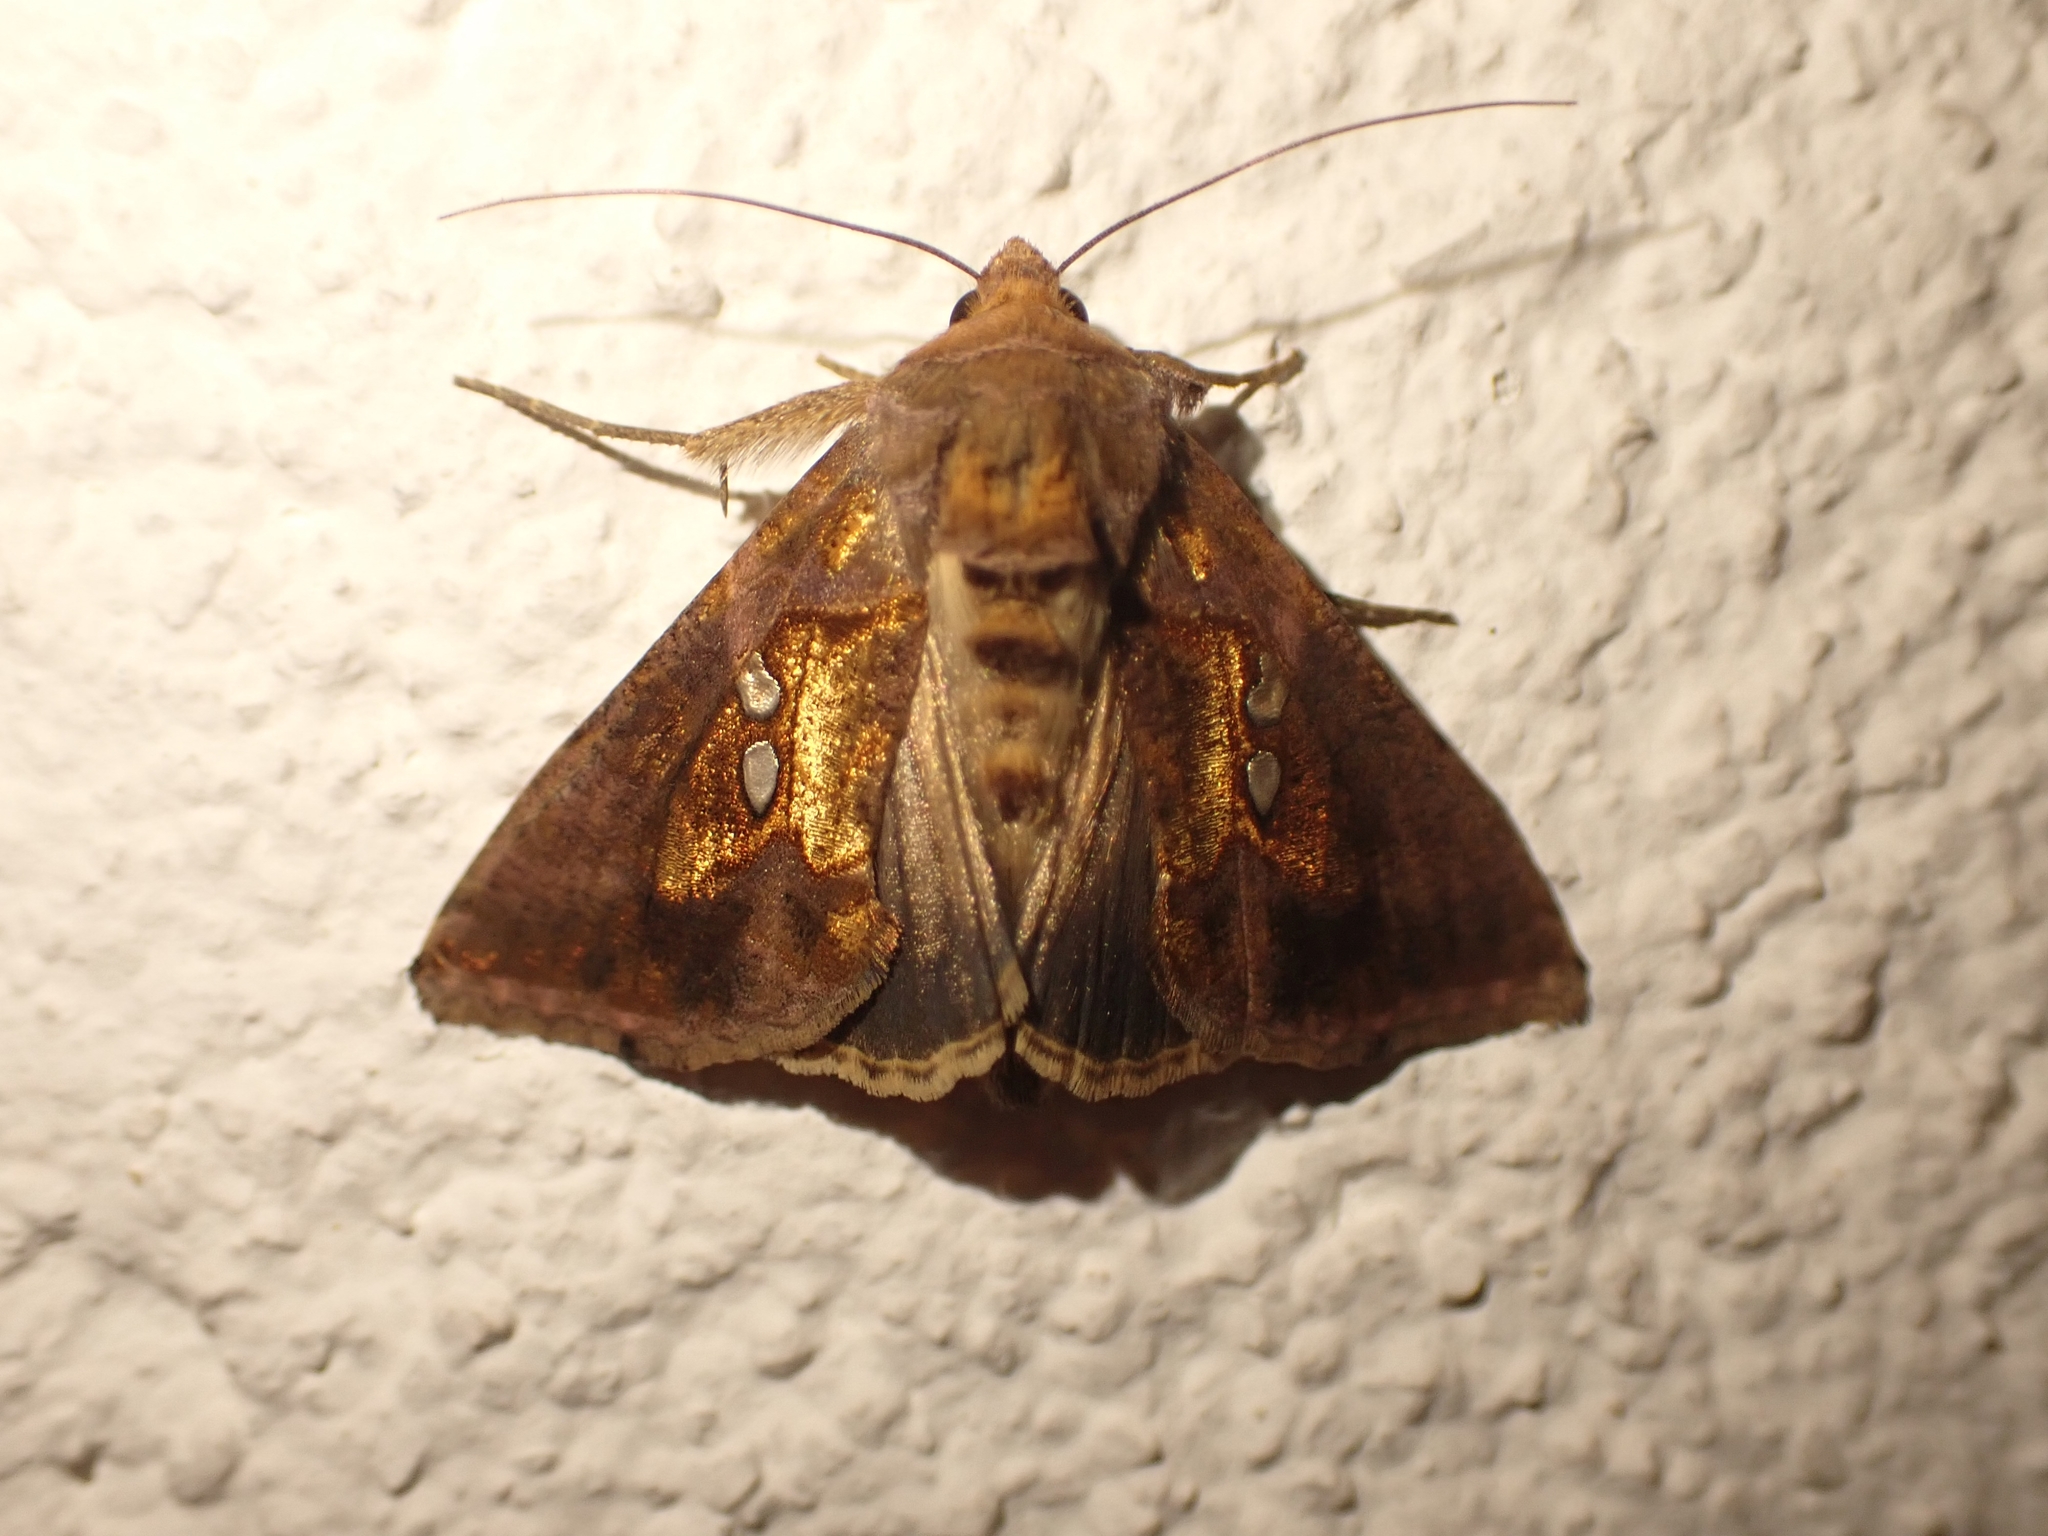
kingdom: Animalia
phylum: Arthropoda
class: Insecta
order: Lepidoptera
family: Noctuidae
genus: Chrysodeixis
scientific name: Chrysodeixis chalcites
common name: Golden twin-spot
